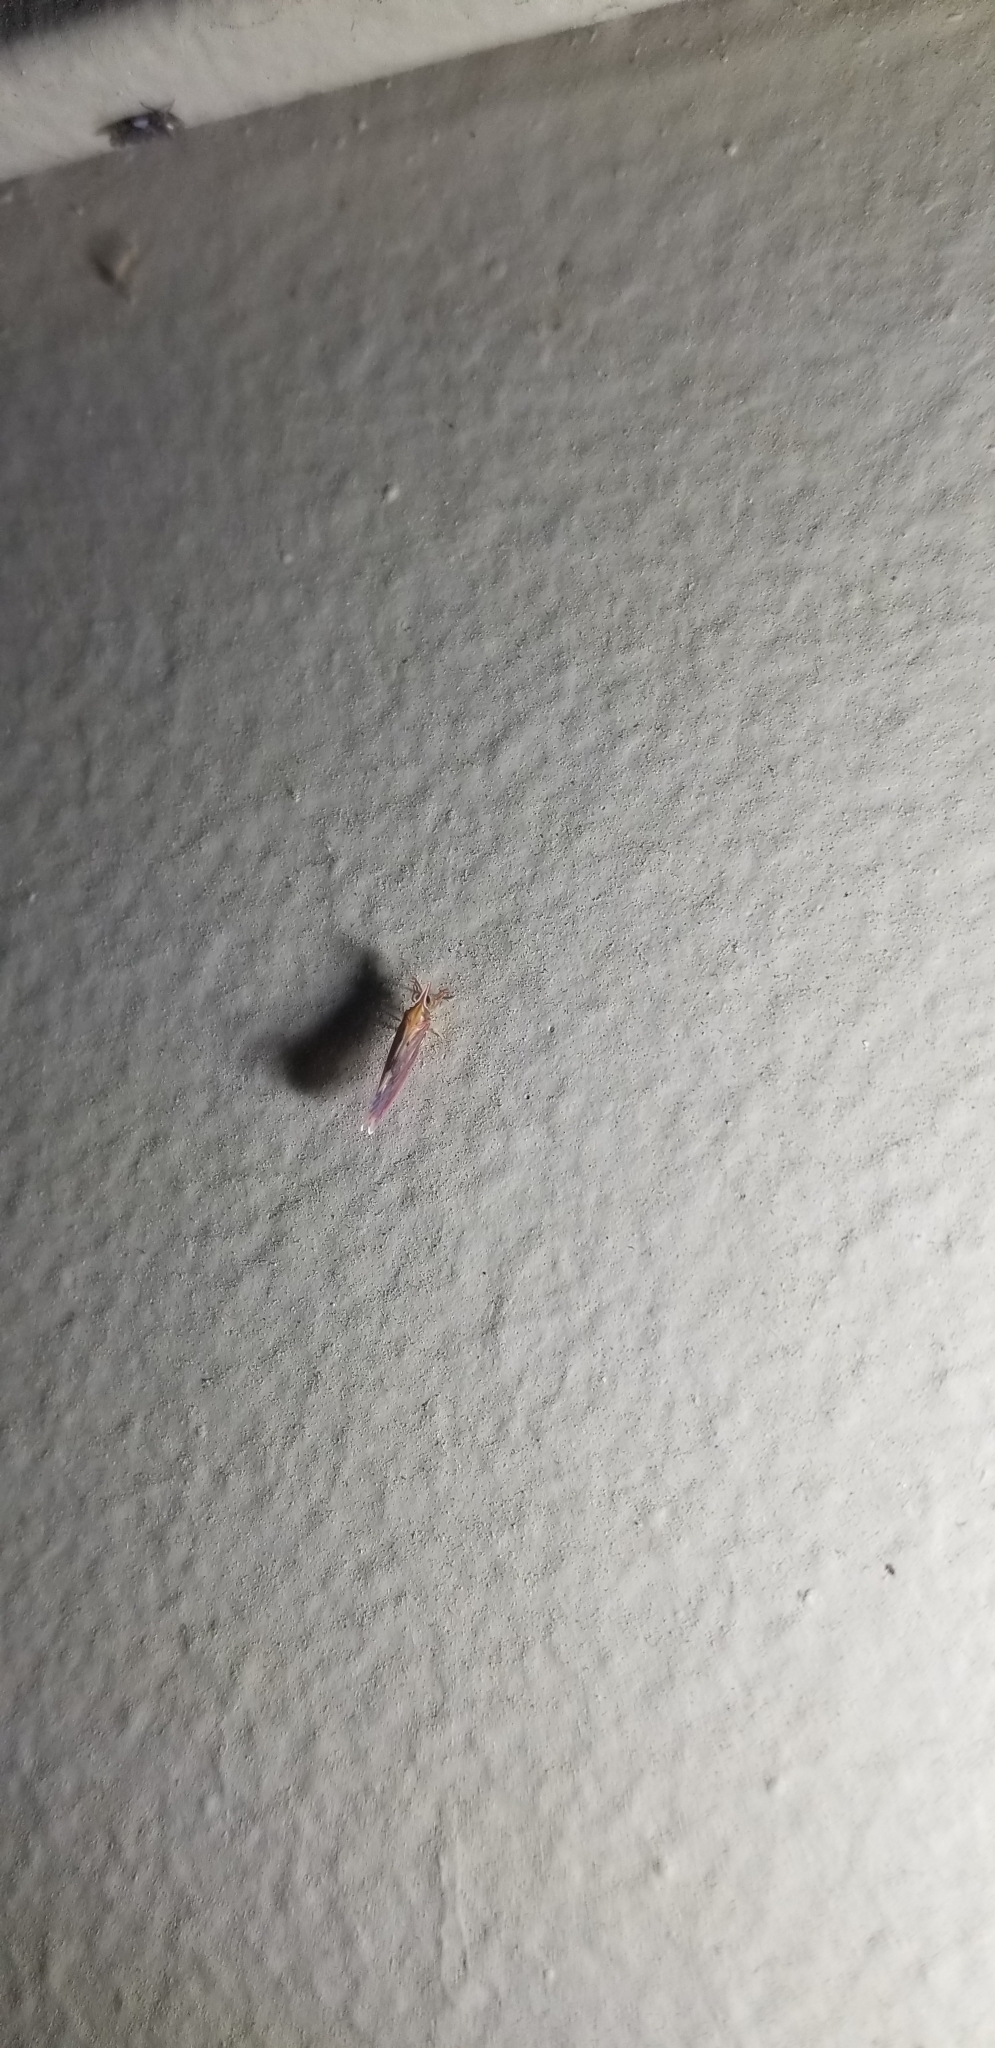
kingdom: Animalia
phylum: Arthropoda
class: Insecta
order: Hemiptera
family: Derbidae
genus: Apache
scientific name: Apache degeeri
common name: Red-fanned planthopper
